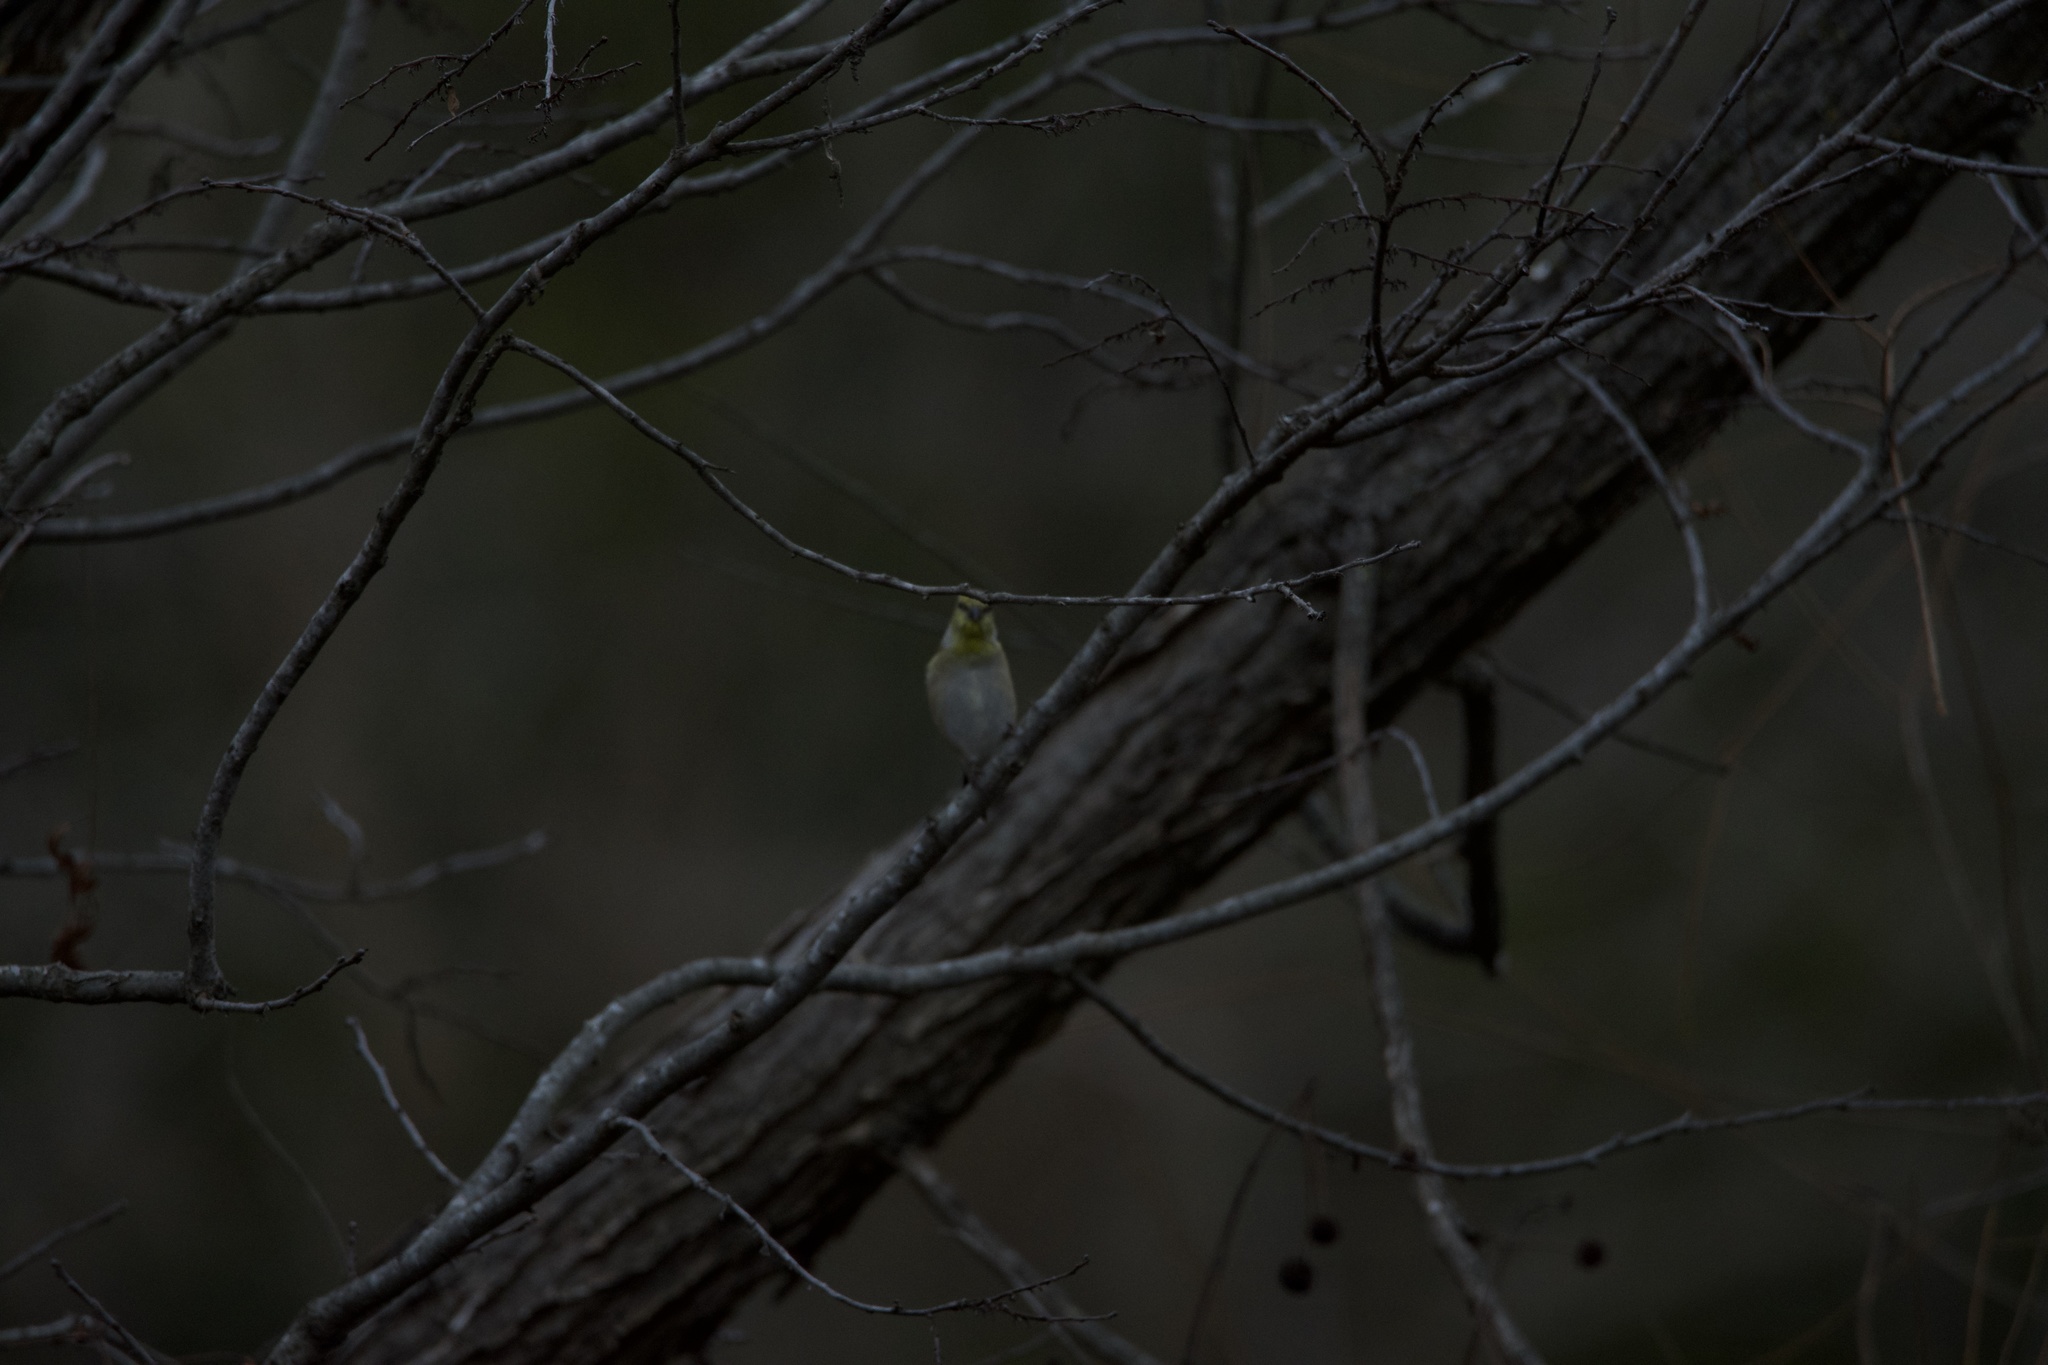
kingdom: Animalia
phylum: Chordata
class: Aves
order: Passeriformes
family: Fringillidae
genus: Spinus
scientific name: Spinus tristis
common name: American goldfinch
